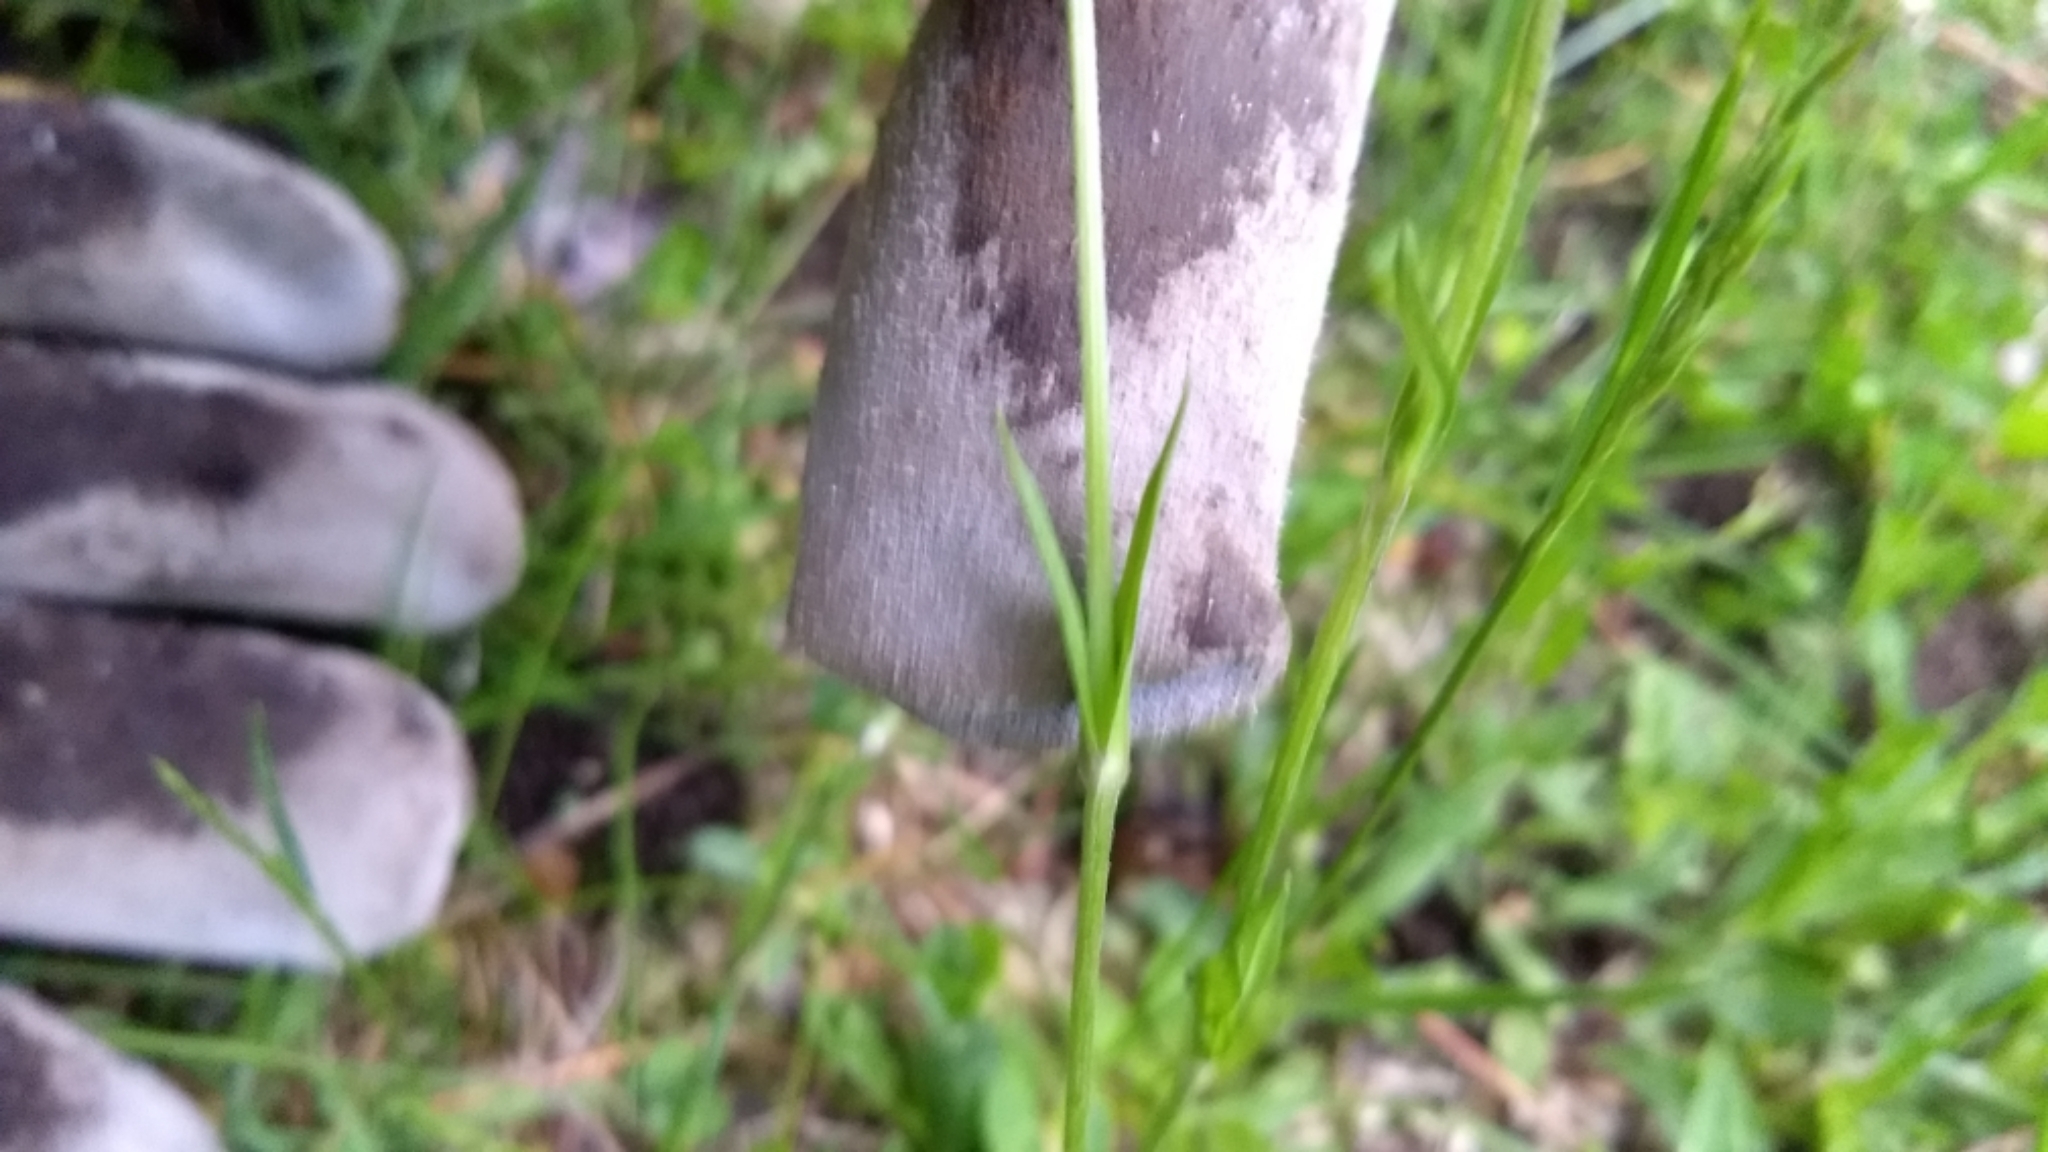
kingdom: Plantae
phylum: Tracheophyta
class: Magnoliopsida
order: Caryophyllales
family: Caryophyllaceae
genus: Silene
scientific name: Silene flos-cuculi
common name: Ragged-robin
